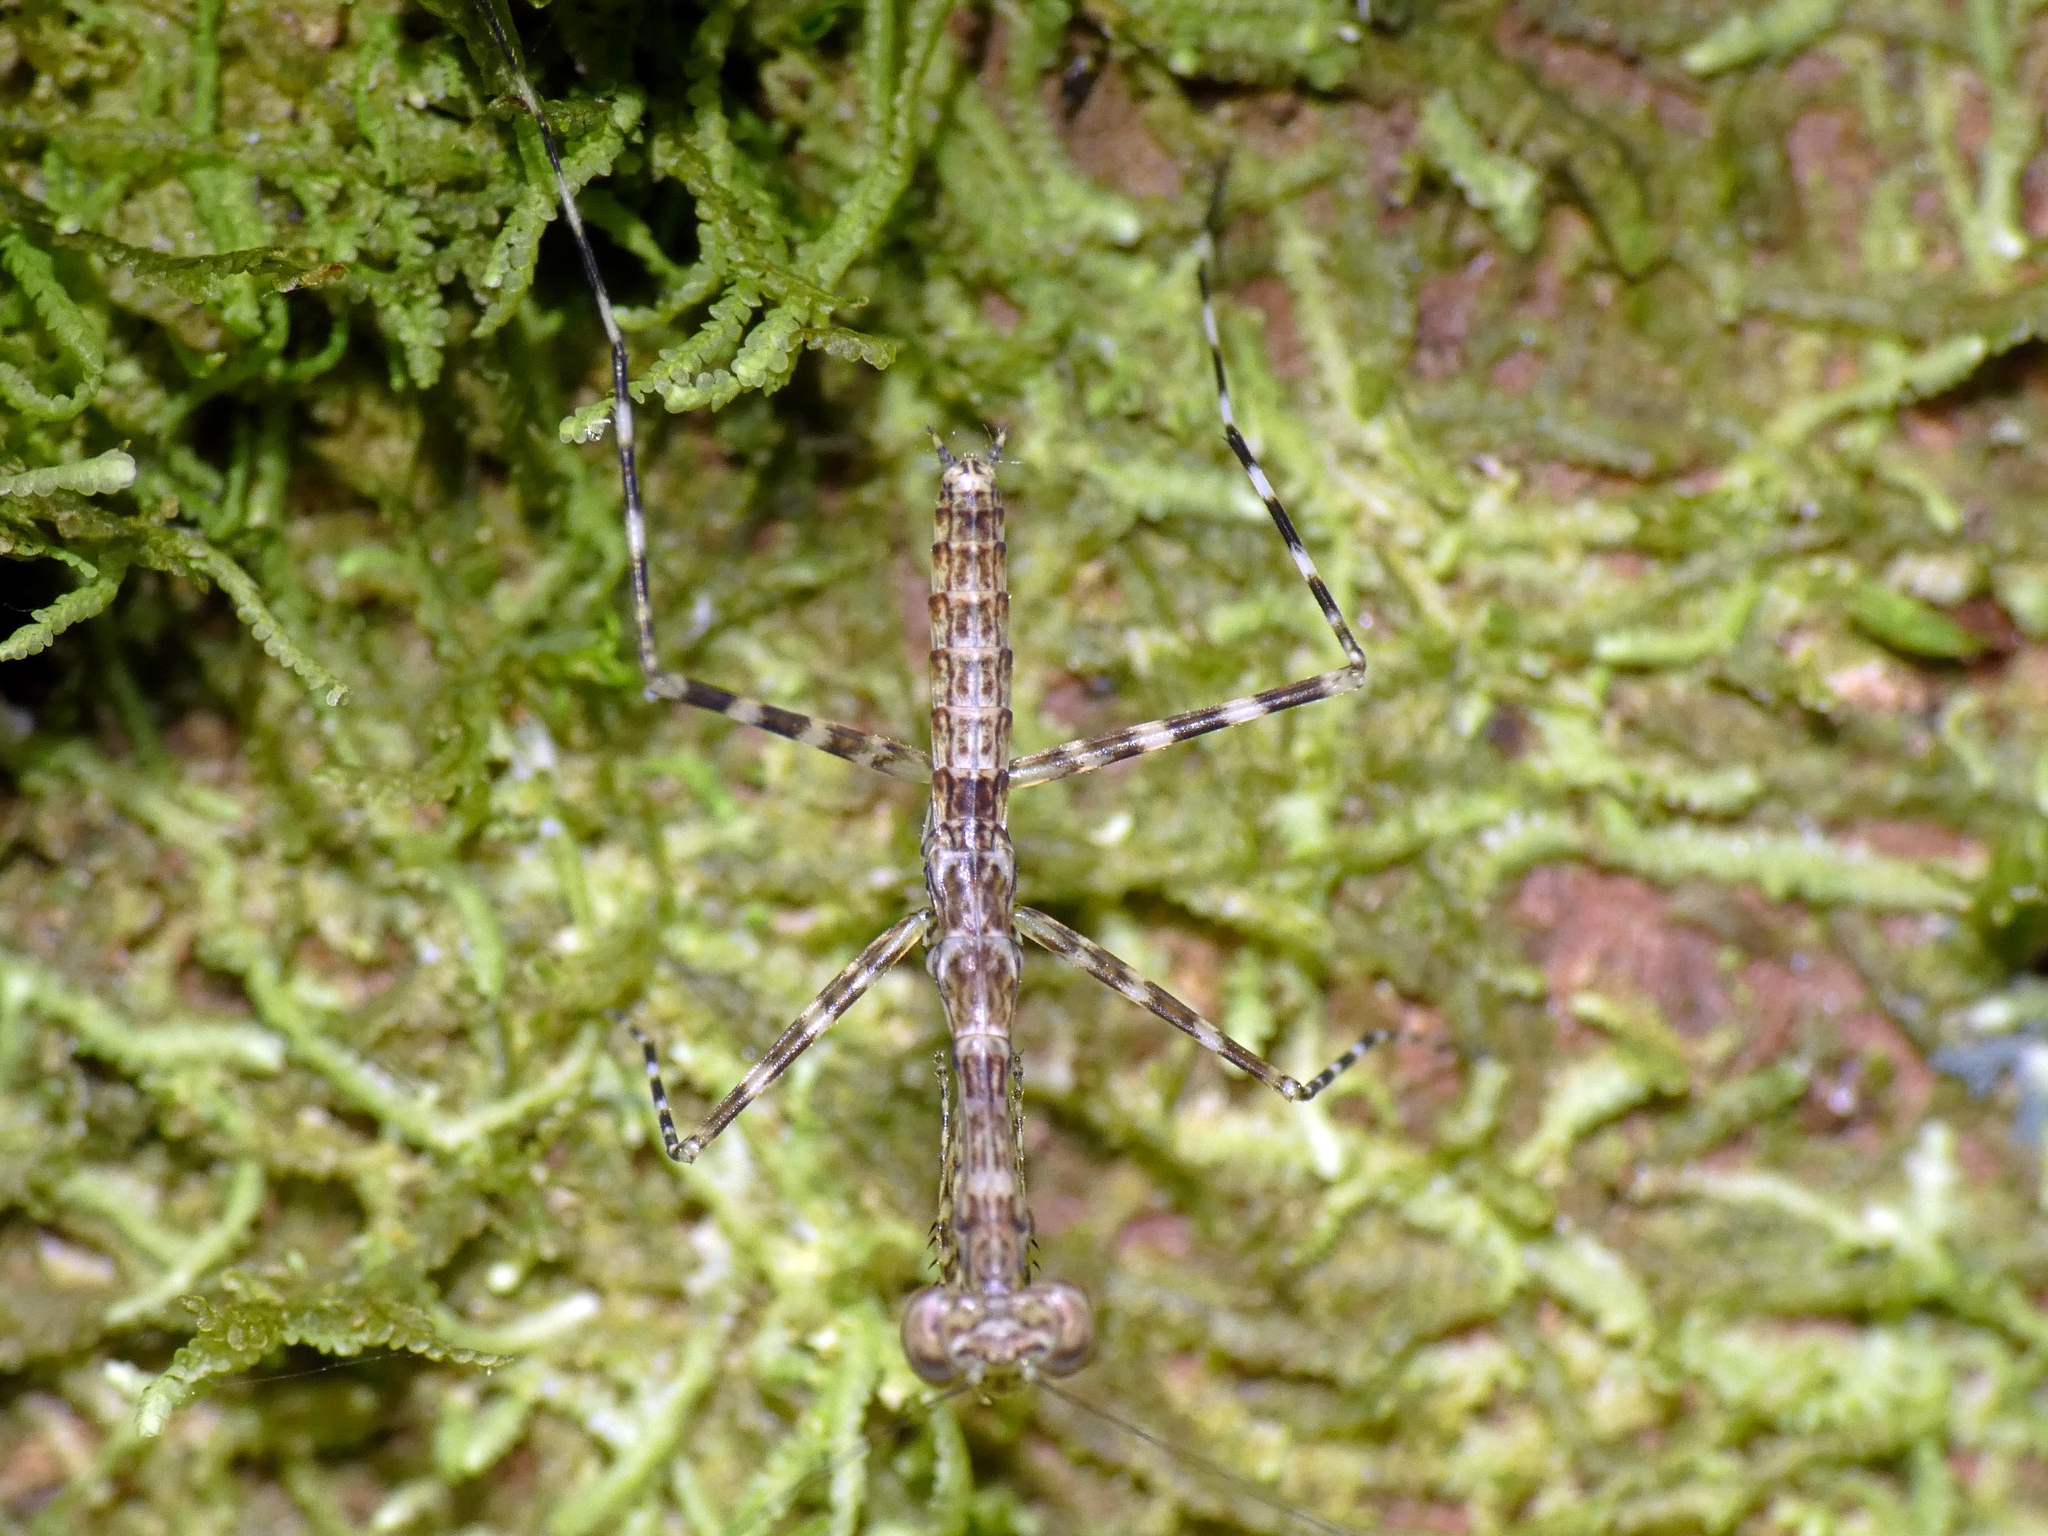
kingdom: Animalia
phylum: Arthropoda
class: Insecta
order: Mantodea
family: Nanomantidae
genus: Ciulfina
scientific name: Ciulfina rentzi
